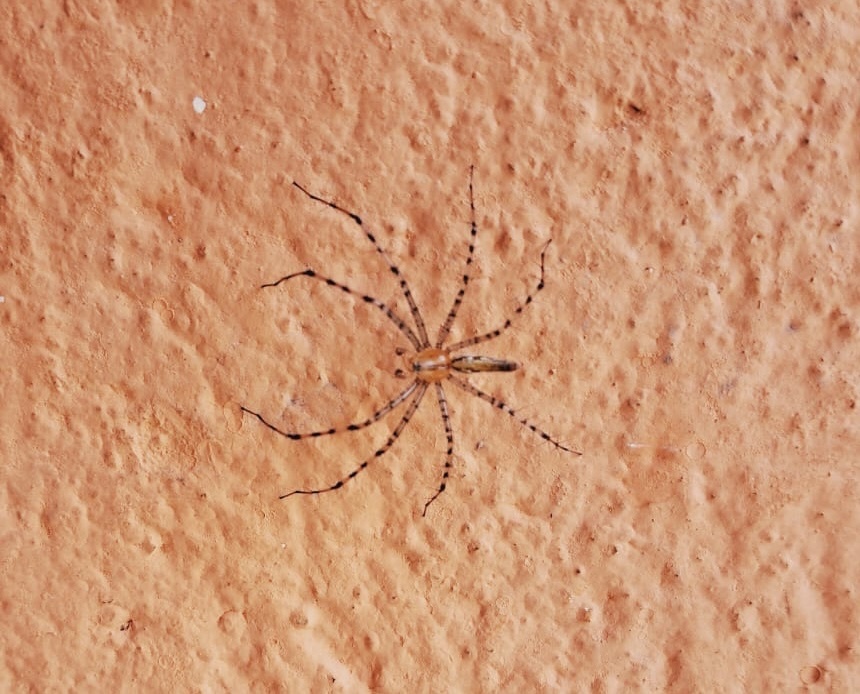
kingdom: Animalia
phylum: Arthropoda
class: Arachnida
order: Araneae
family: Oxyopidae
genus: Peucetia
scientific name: Peucetia rubrolineata
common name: Lynx spiders
